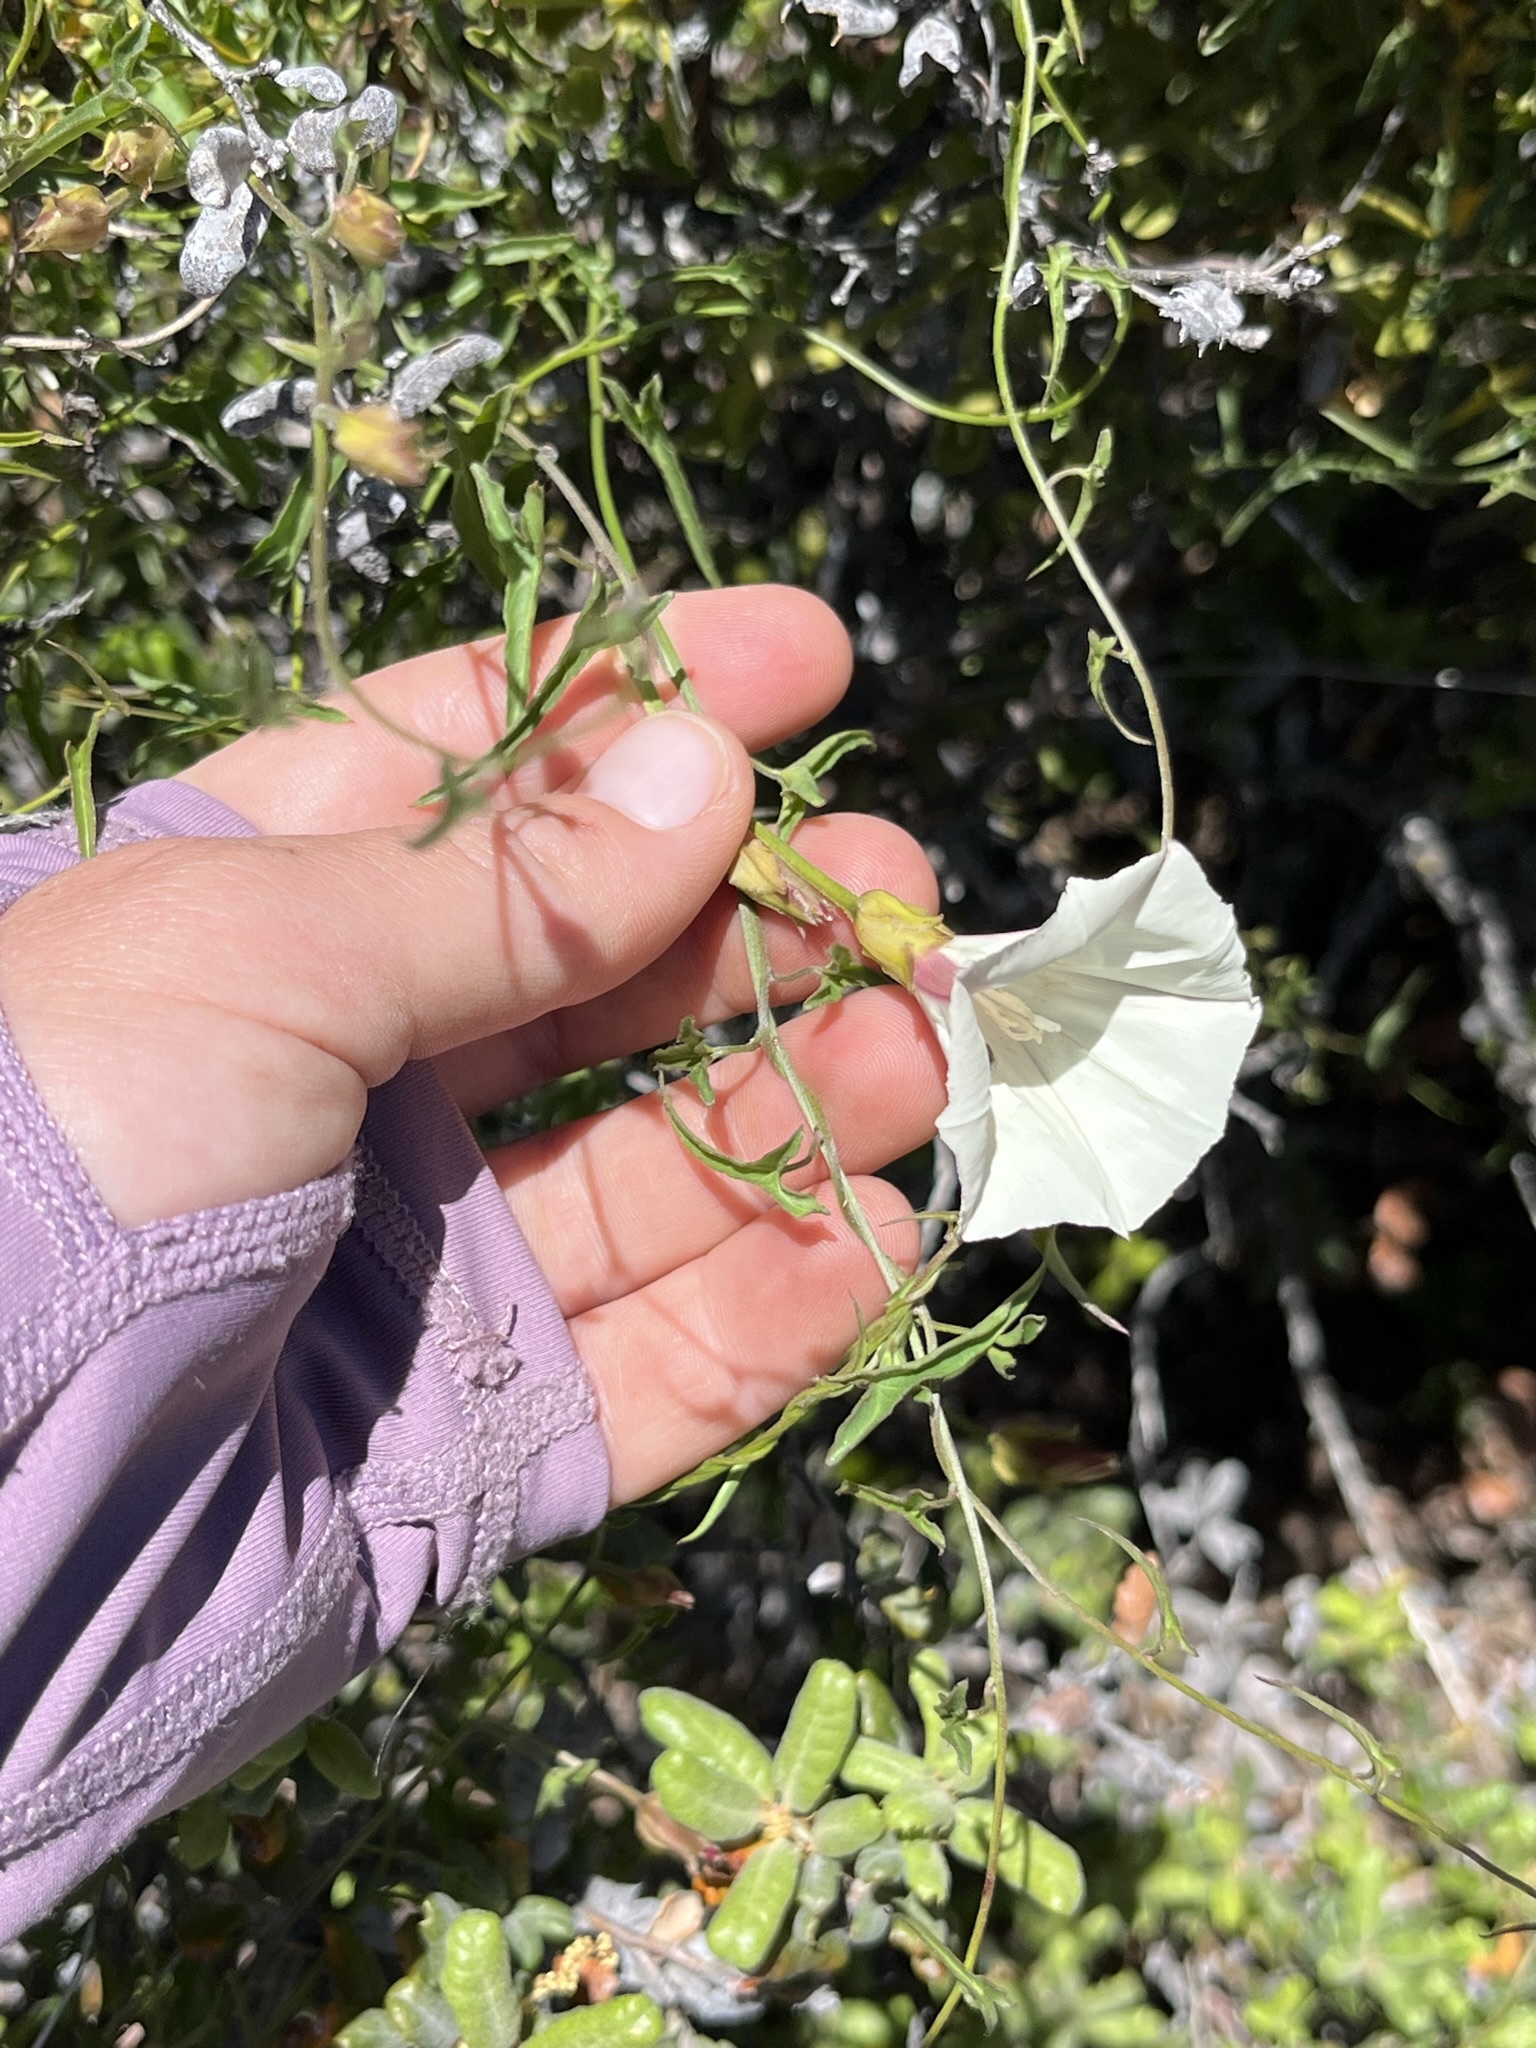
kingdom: Plantae
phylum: Tracheophyta
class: Magnoliopsida
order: Solanales
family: Convolvulaceae
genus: Calystegia
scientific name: Calystegia macrostegia
